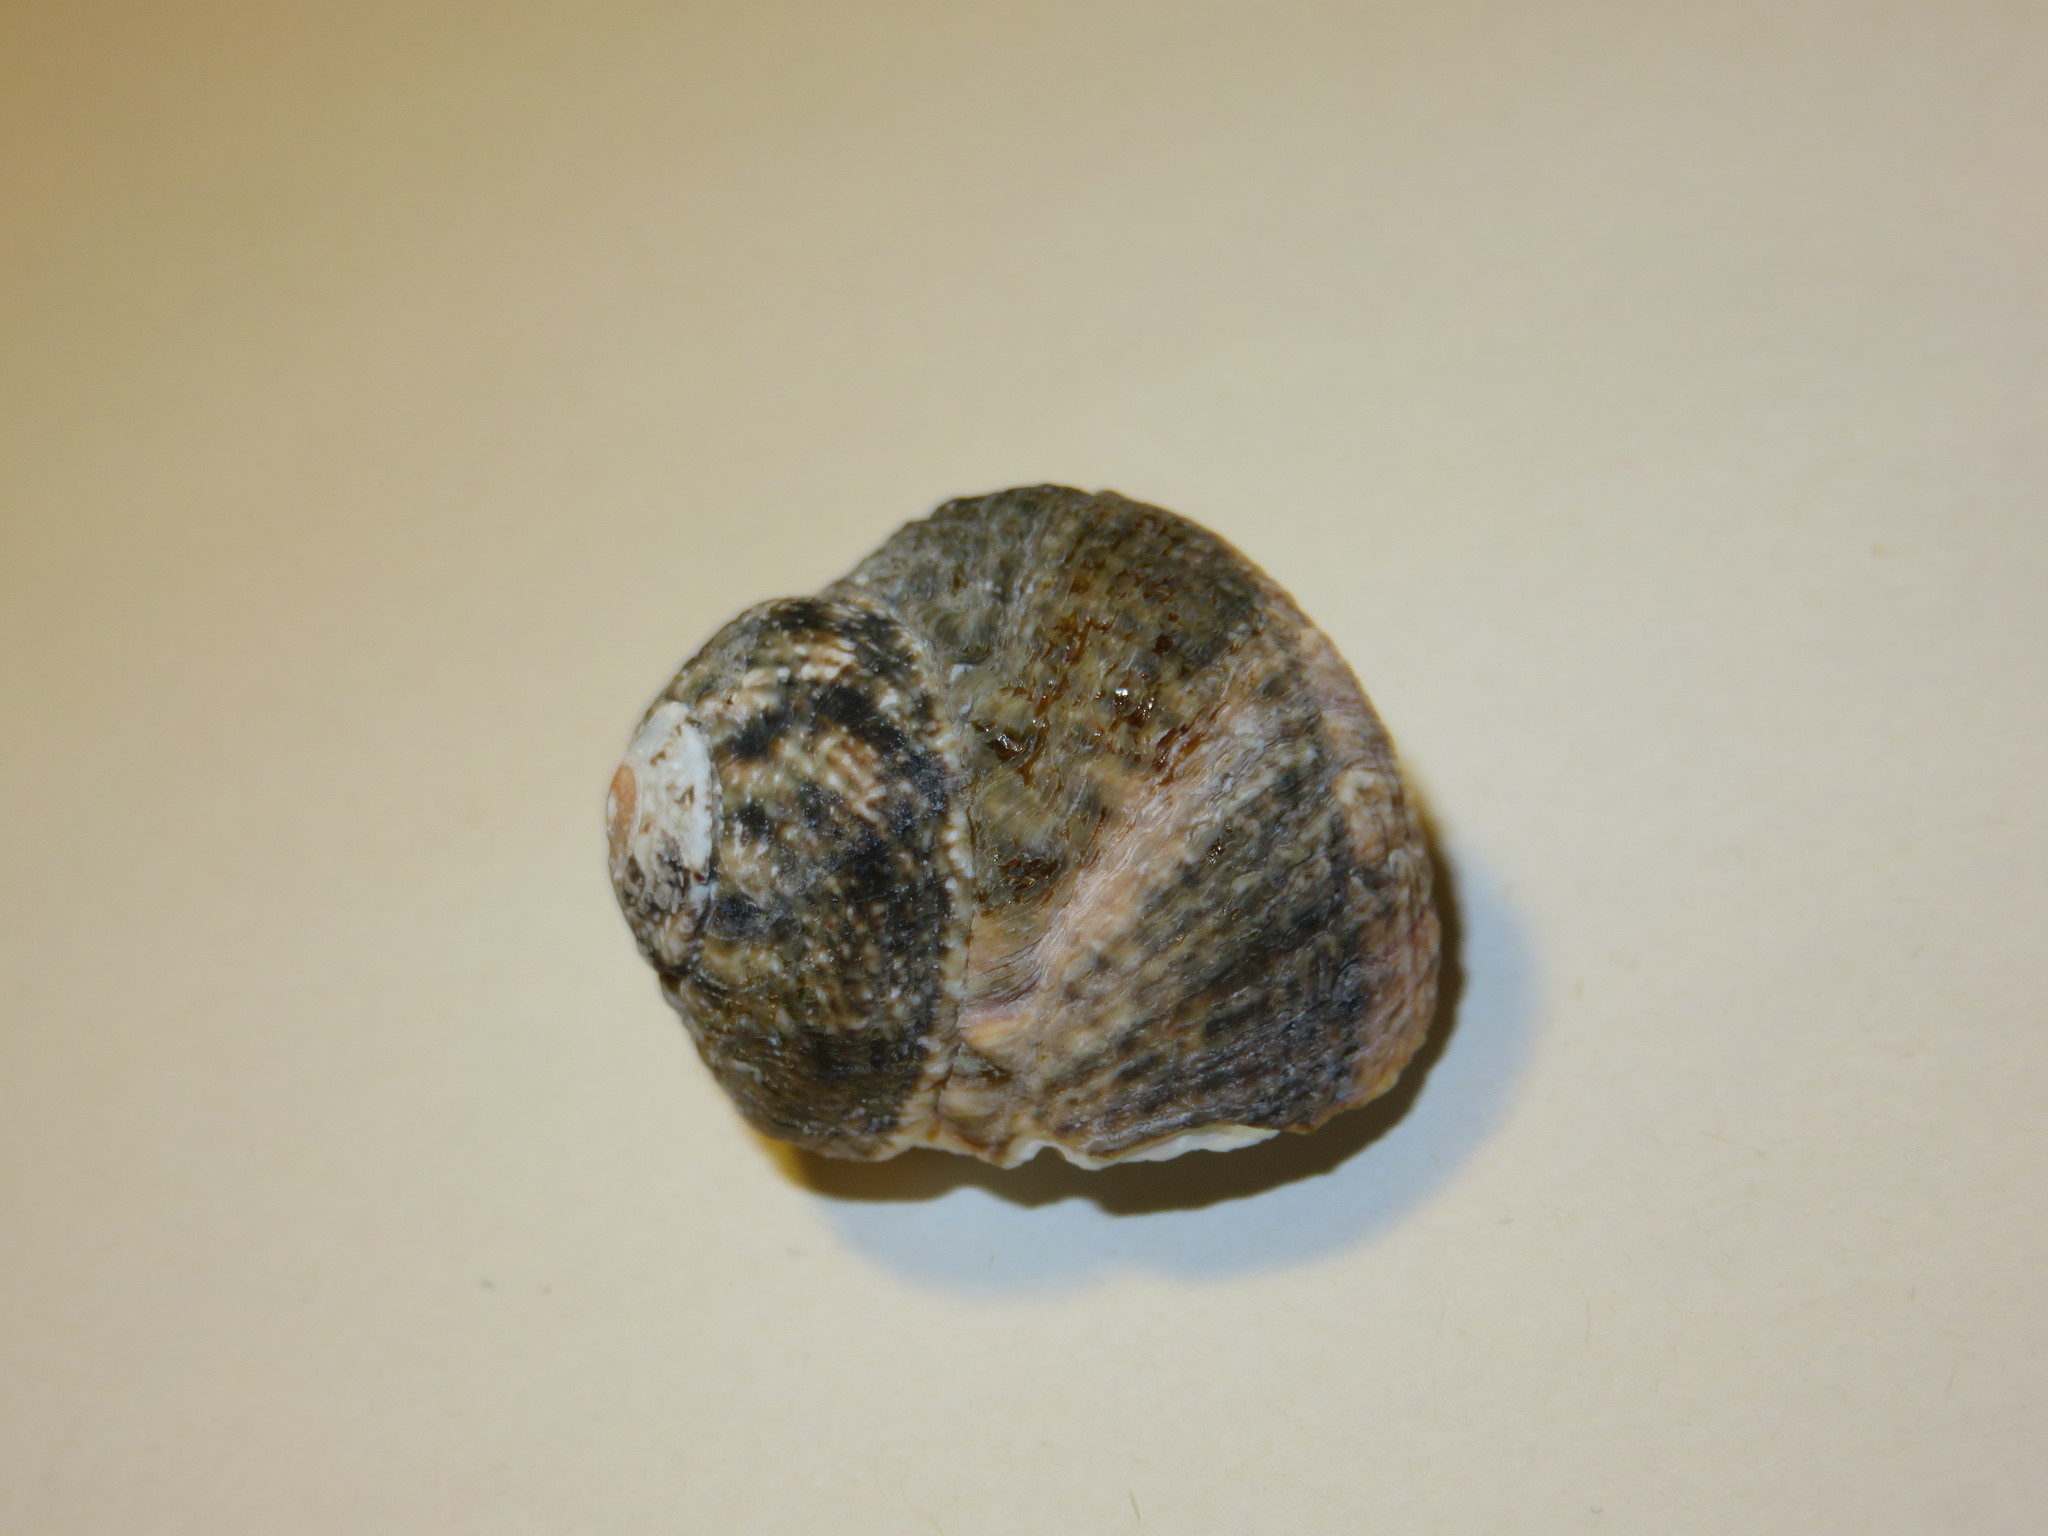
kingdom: Animalia
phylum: Mollusca
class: Gastropoda
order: Trochida
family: Turbinidae
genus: Lunella
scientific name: Lunella correensis
